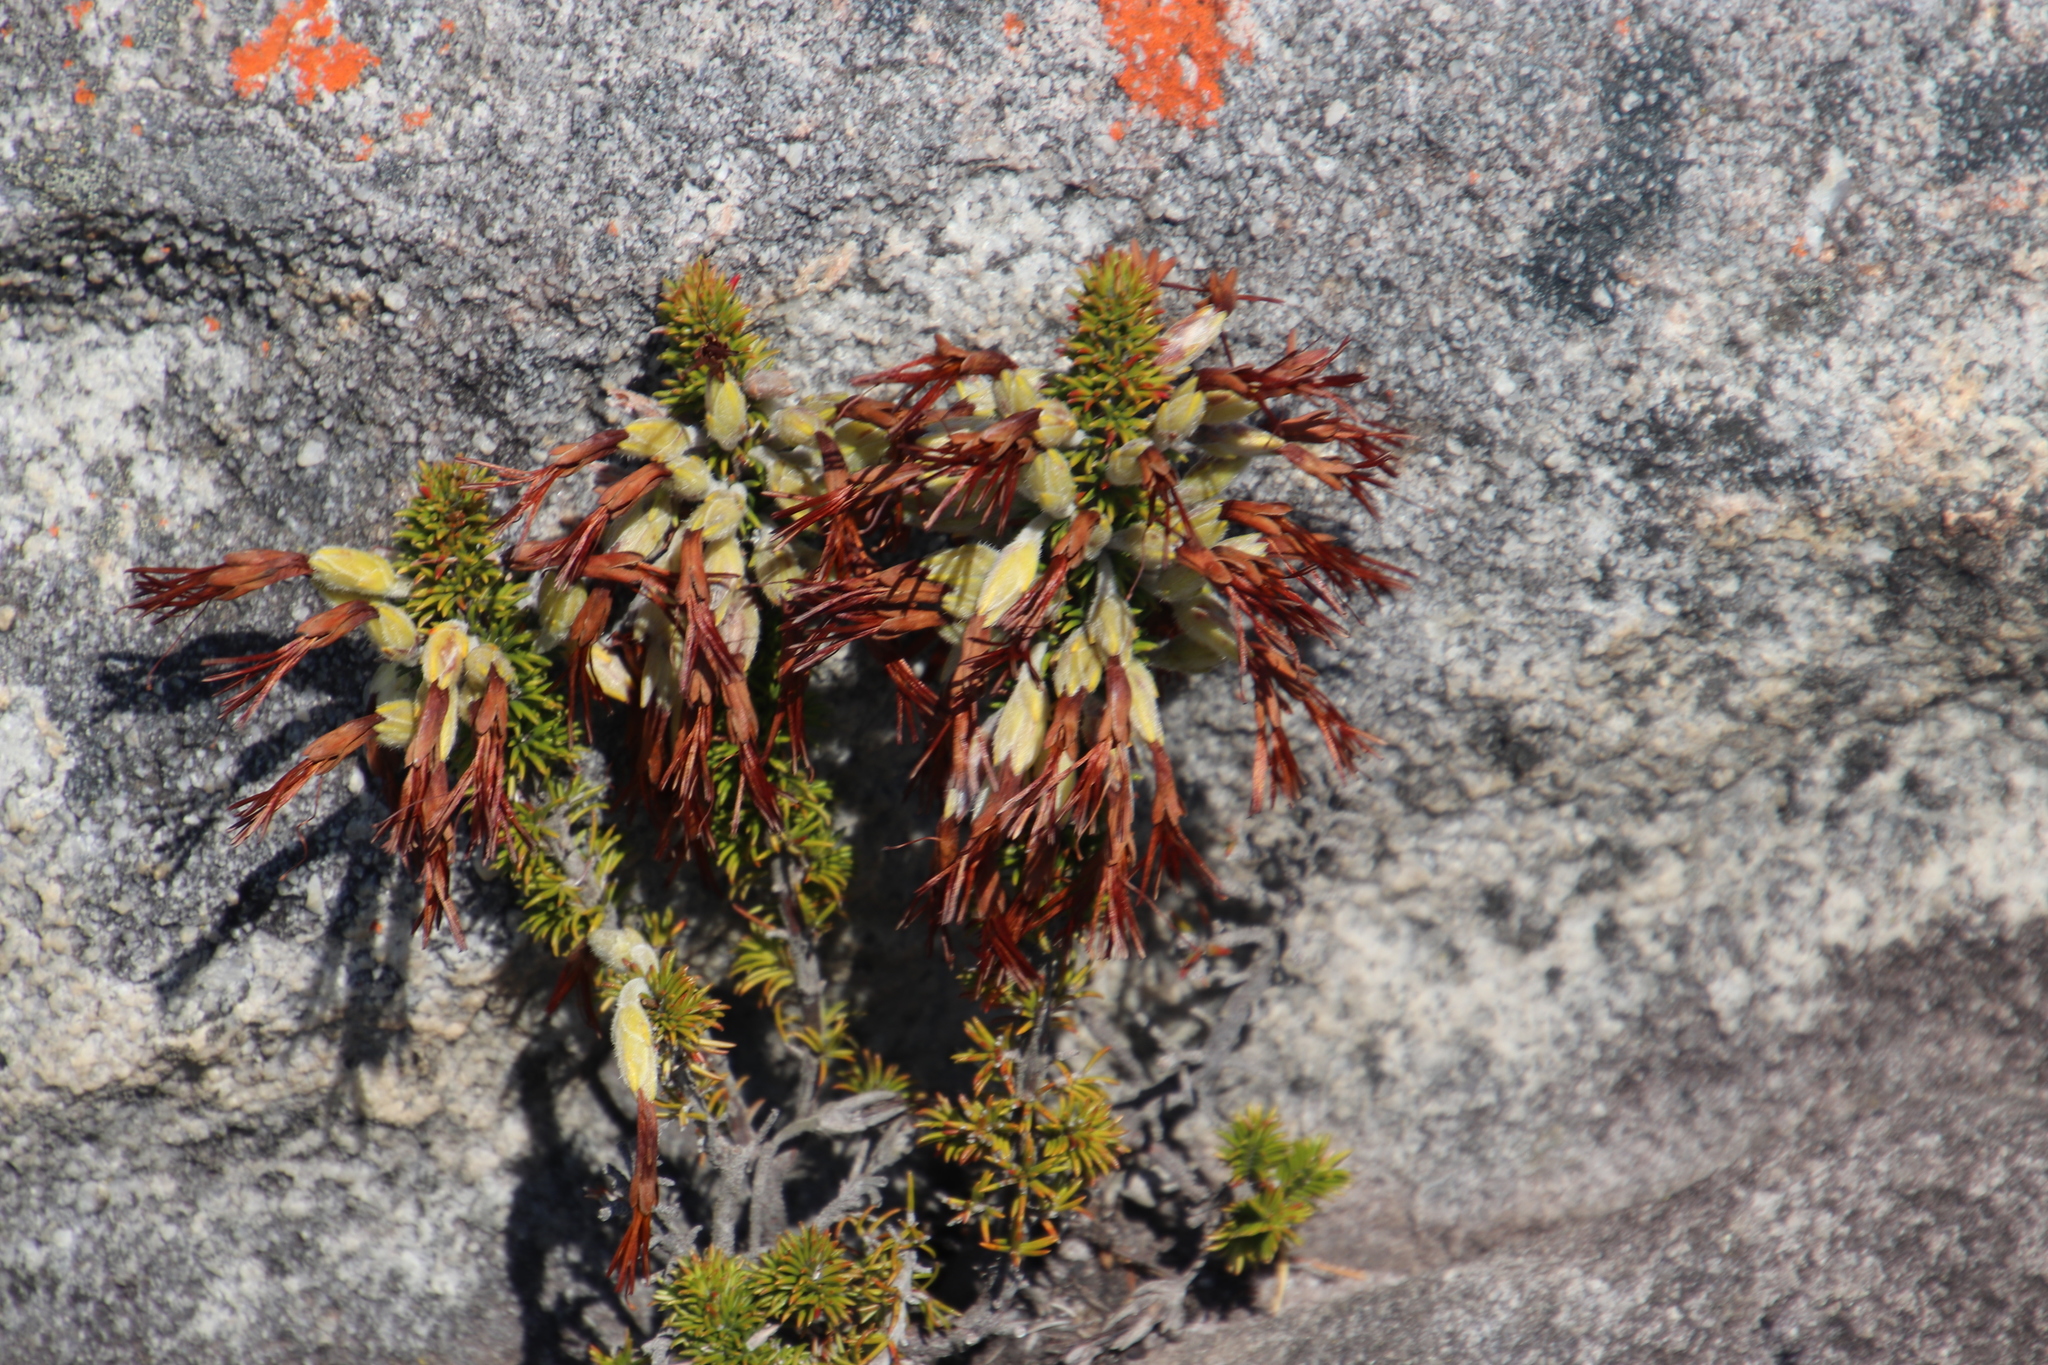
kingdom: Plantae
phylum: Tracheophyta
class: Magnoliopsida
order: Ericales
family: Ericaceae
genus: Erica
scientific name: Erica coccinea
